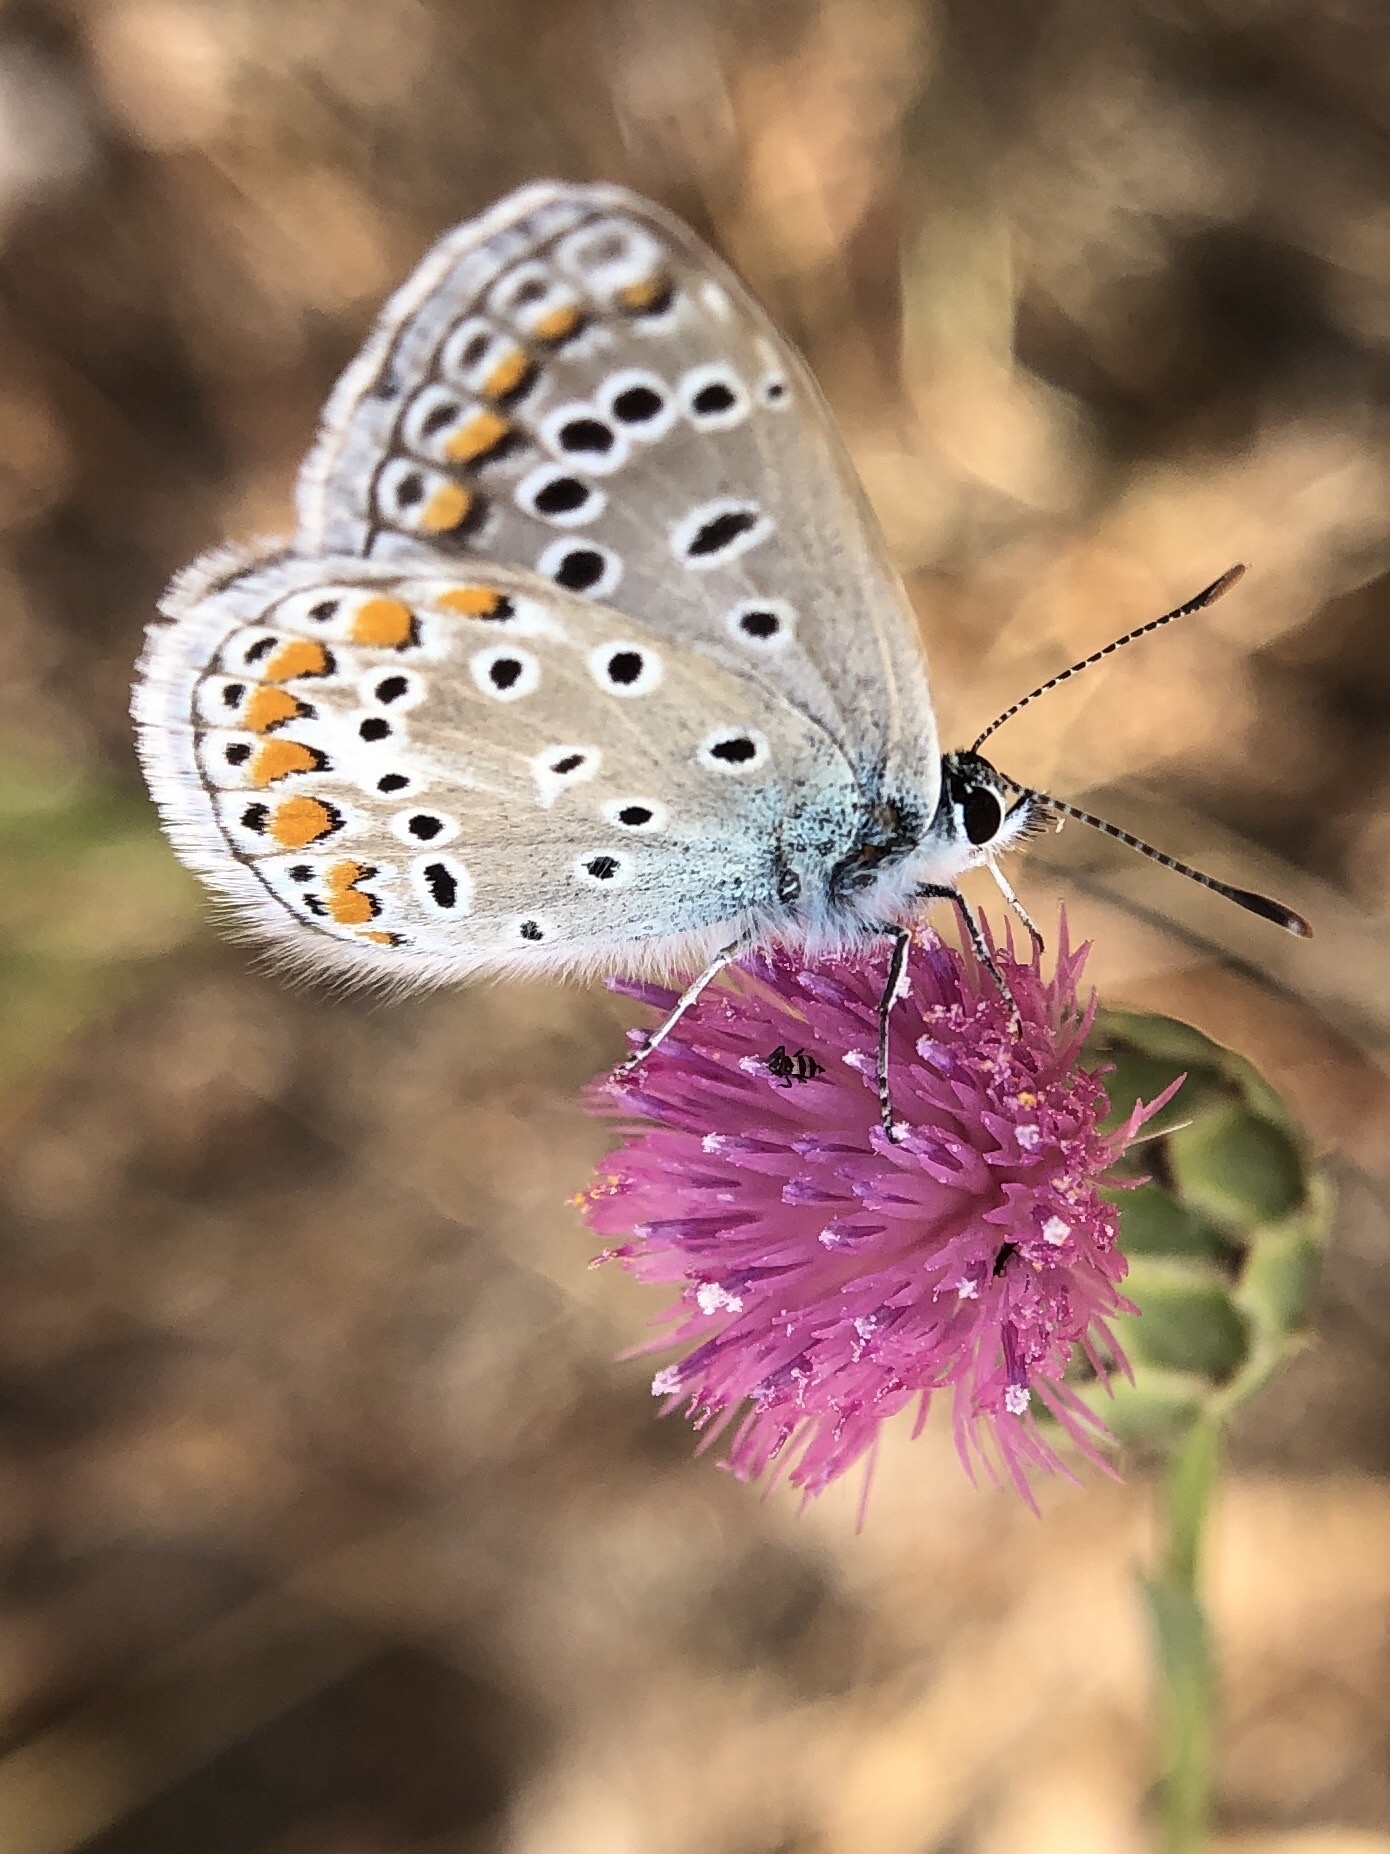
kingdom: Animalia
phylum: Arthropoda
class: Insecta
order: Lepidoptera
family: Lycaenidae
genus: Polyommatus
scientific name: Polyommatus icarus
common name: Common blue
